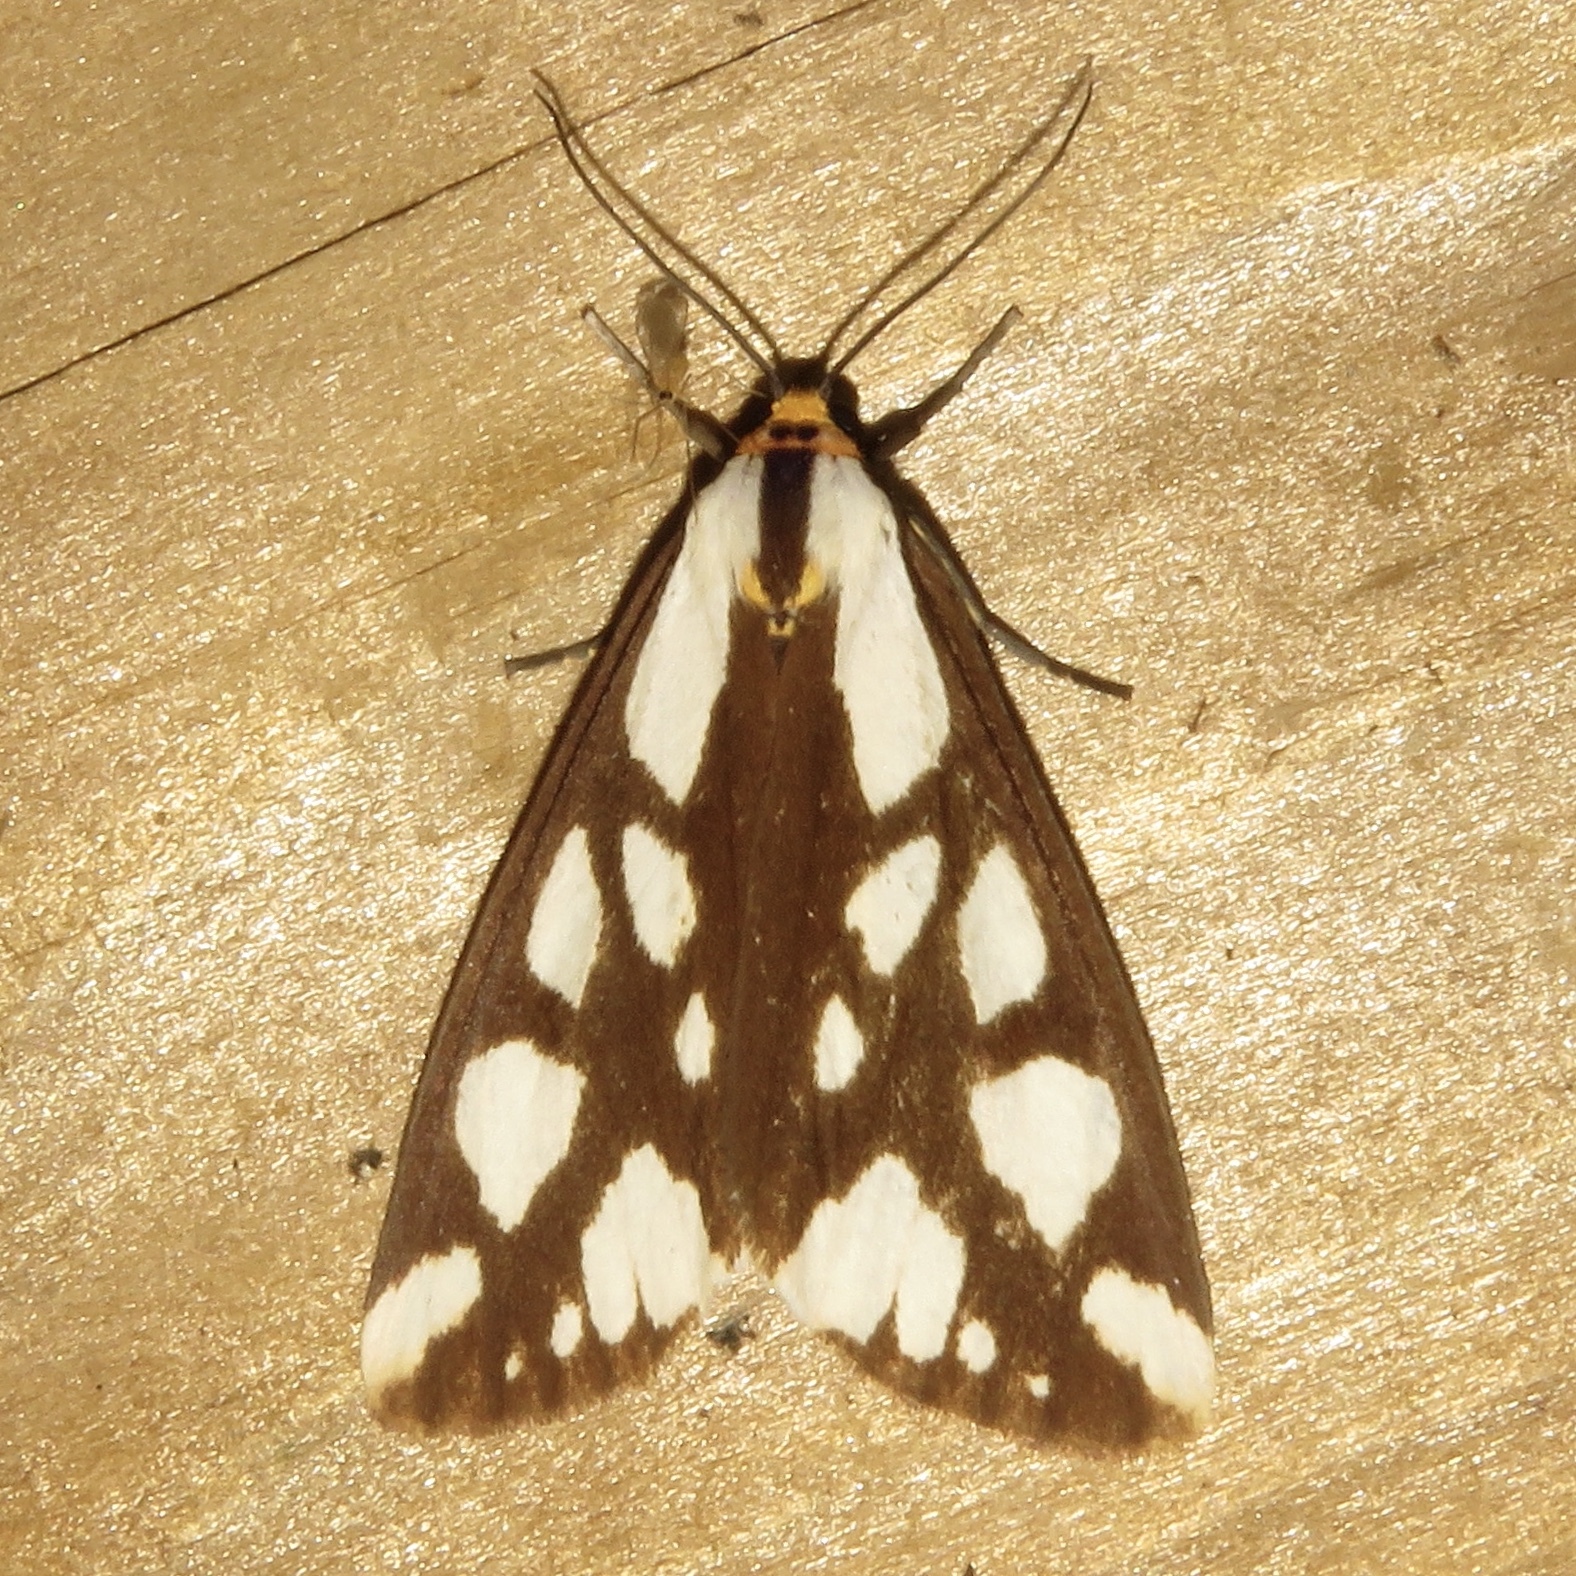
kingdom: Animalia
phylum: Arthropoda
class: Insecta
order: Lepidoptera
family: Erebidae
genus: Haploa
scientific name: Haploa confusa
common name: Confused haploa moth
